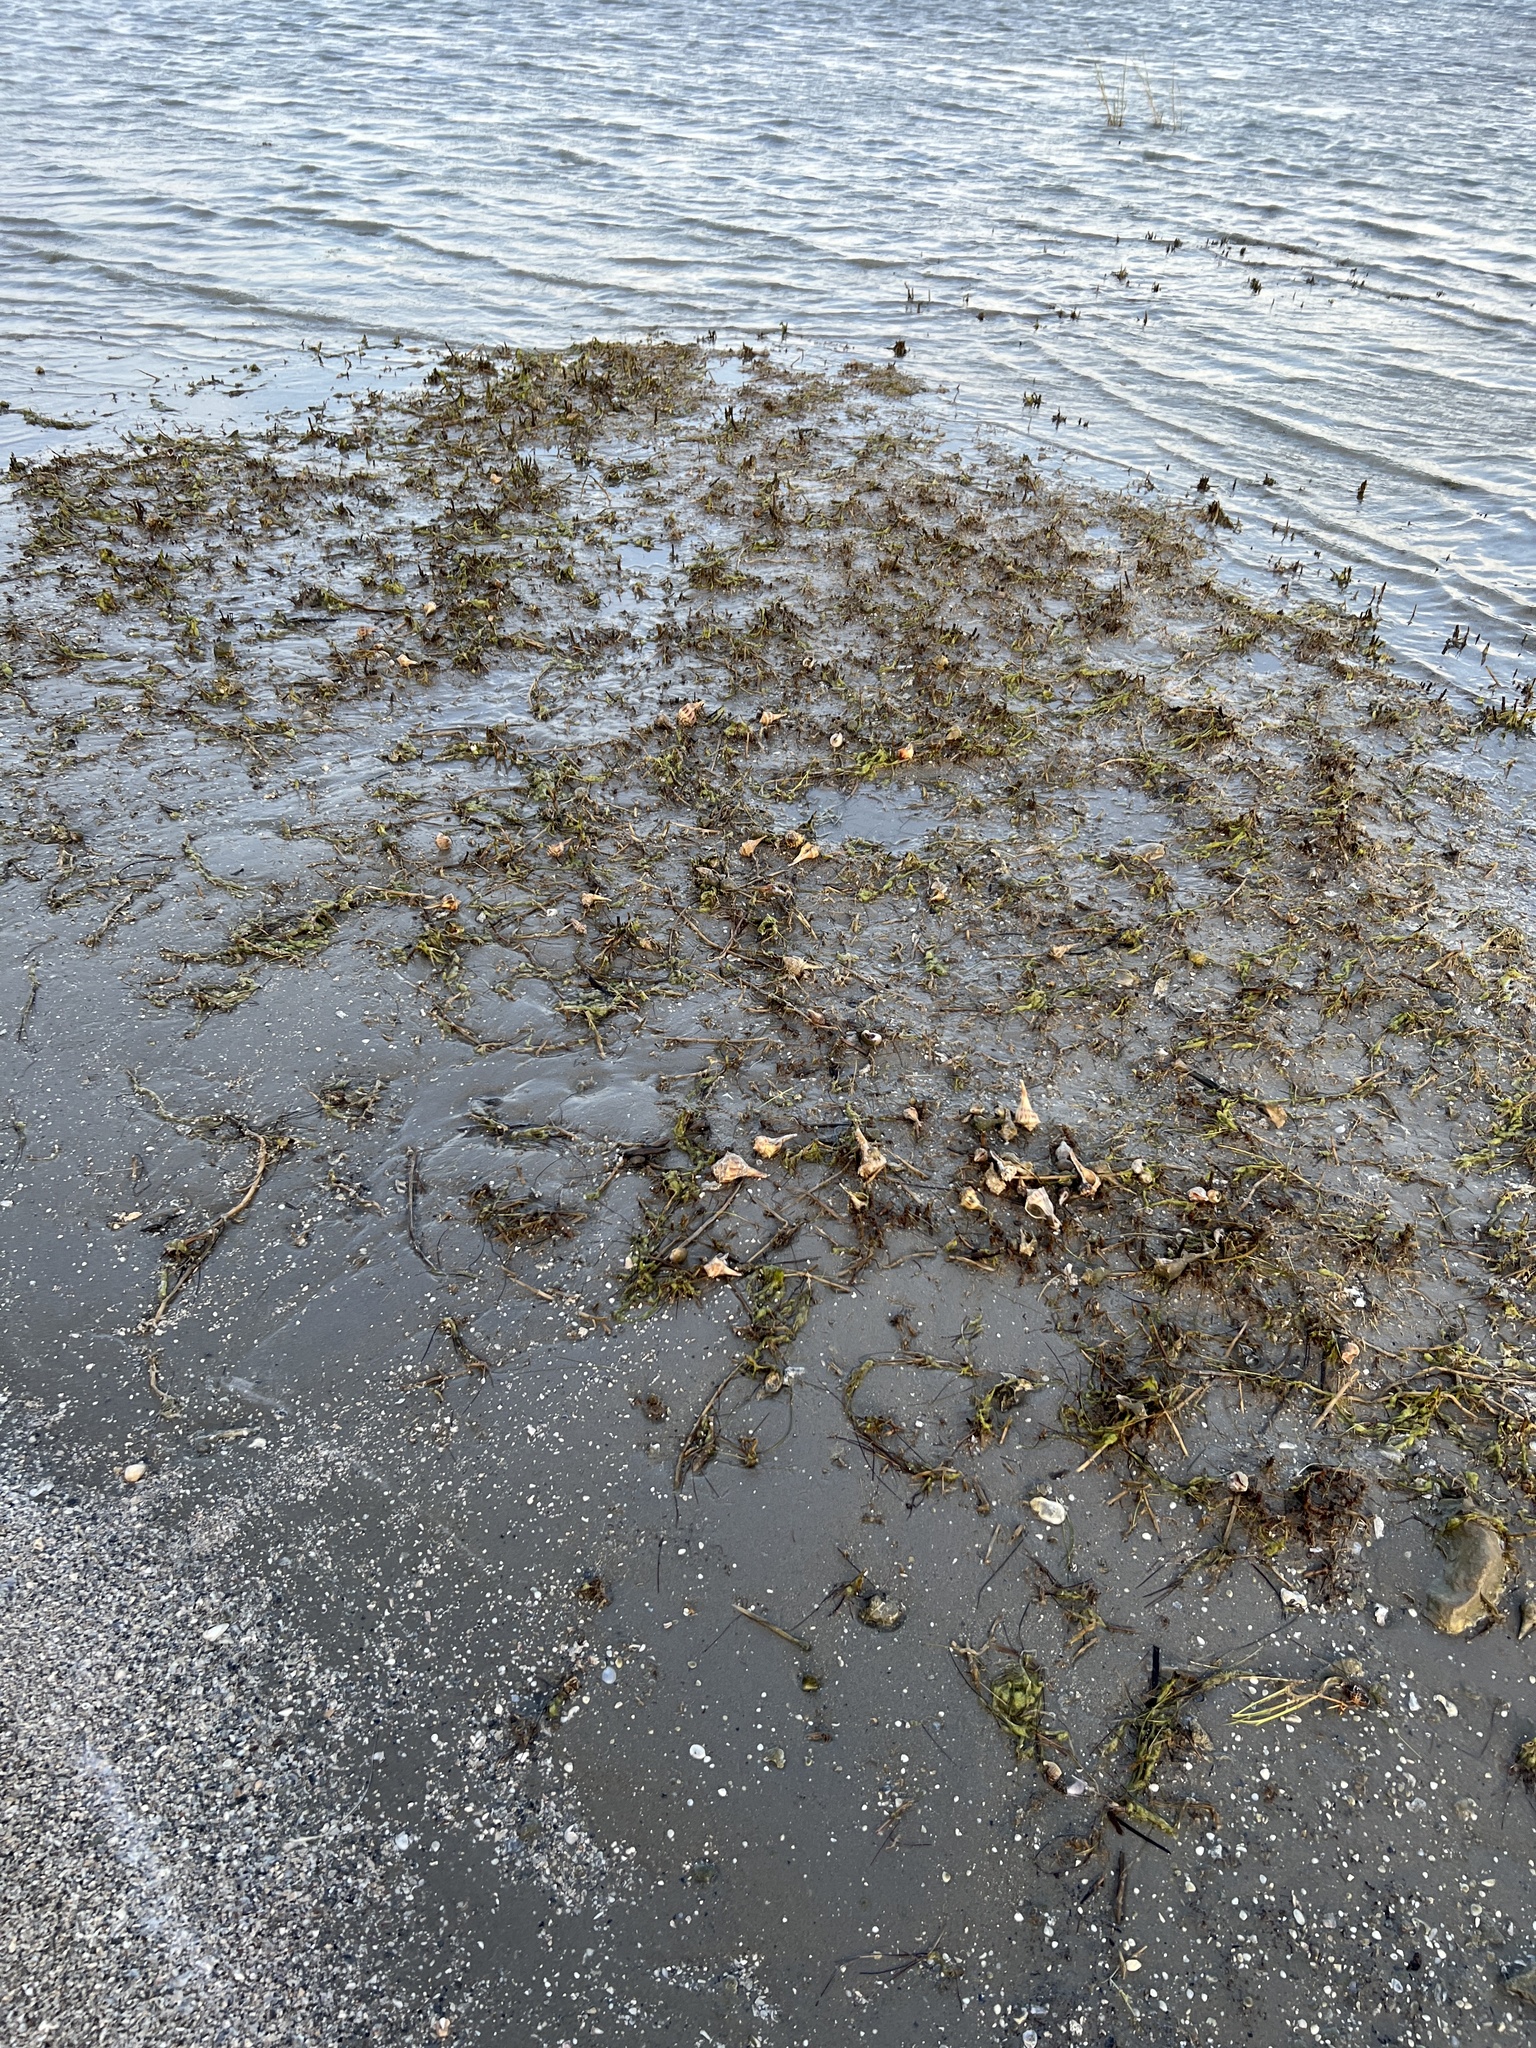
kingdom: Animalia
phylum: Mollusca
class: Gastropoda
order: Neogastropoda
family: Busyconidae
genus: Sinistrofulgur
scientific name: Sinistrofulgur pulleyi
